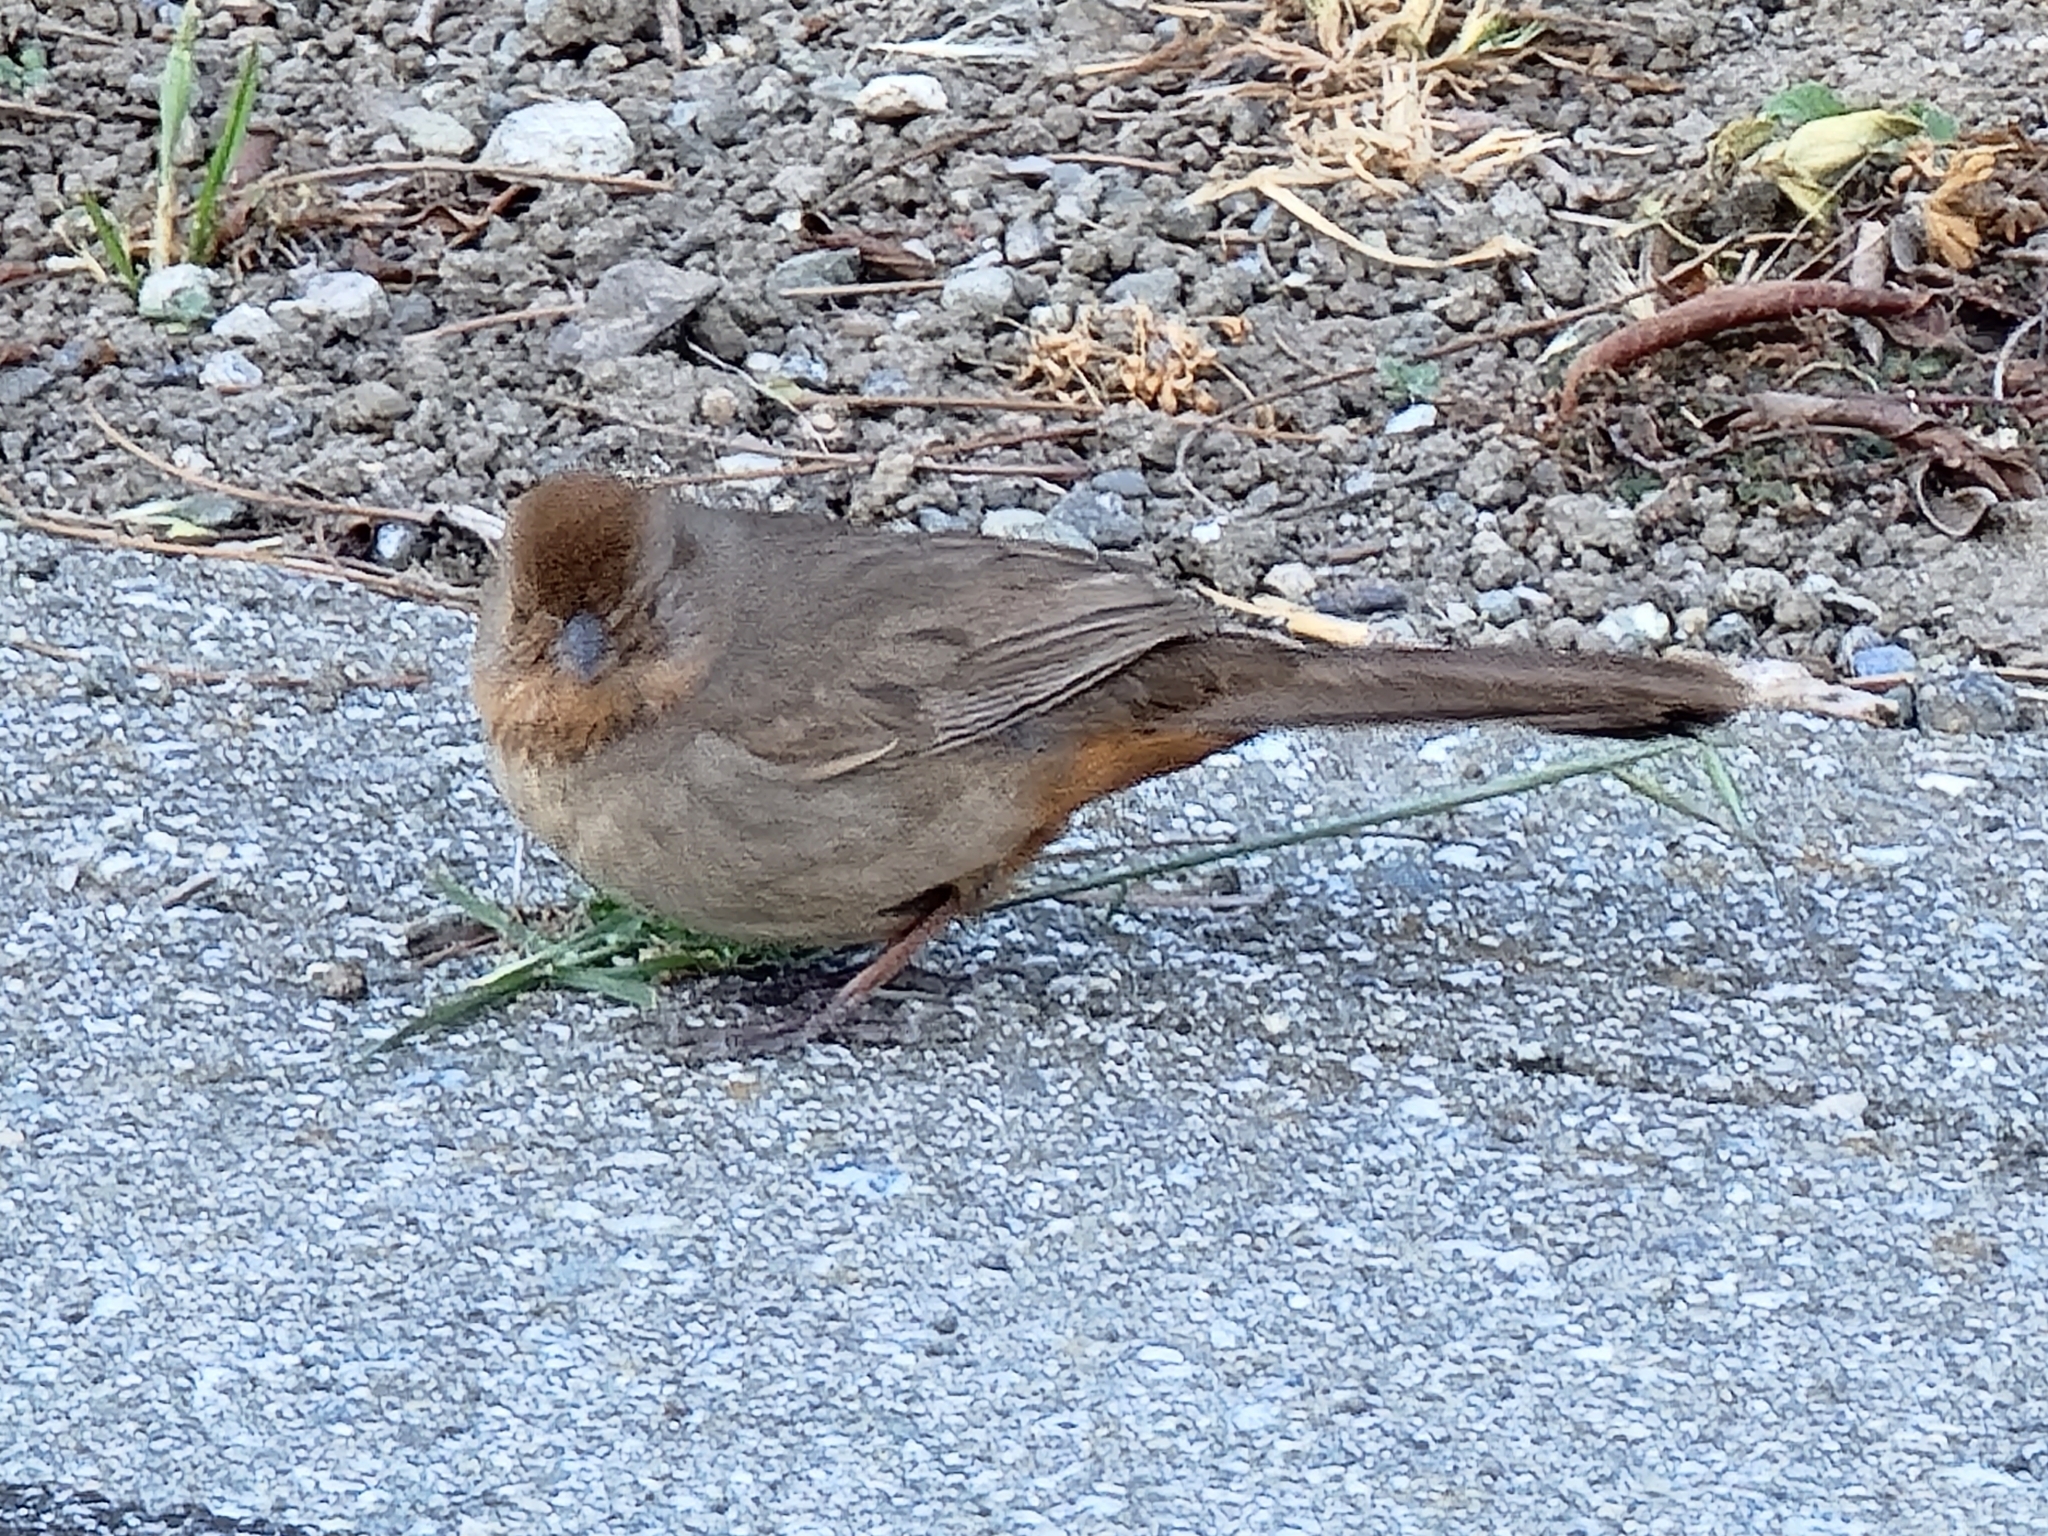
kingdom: Animalia
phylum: Chordata
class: Aves
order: Passeriformes
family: Passerellidae
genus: Melozone
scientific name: Melozone crissalis
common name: California towhee
